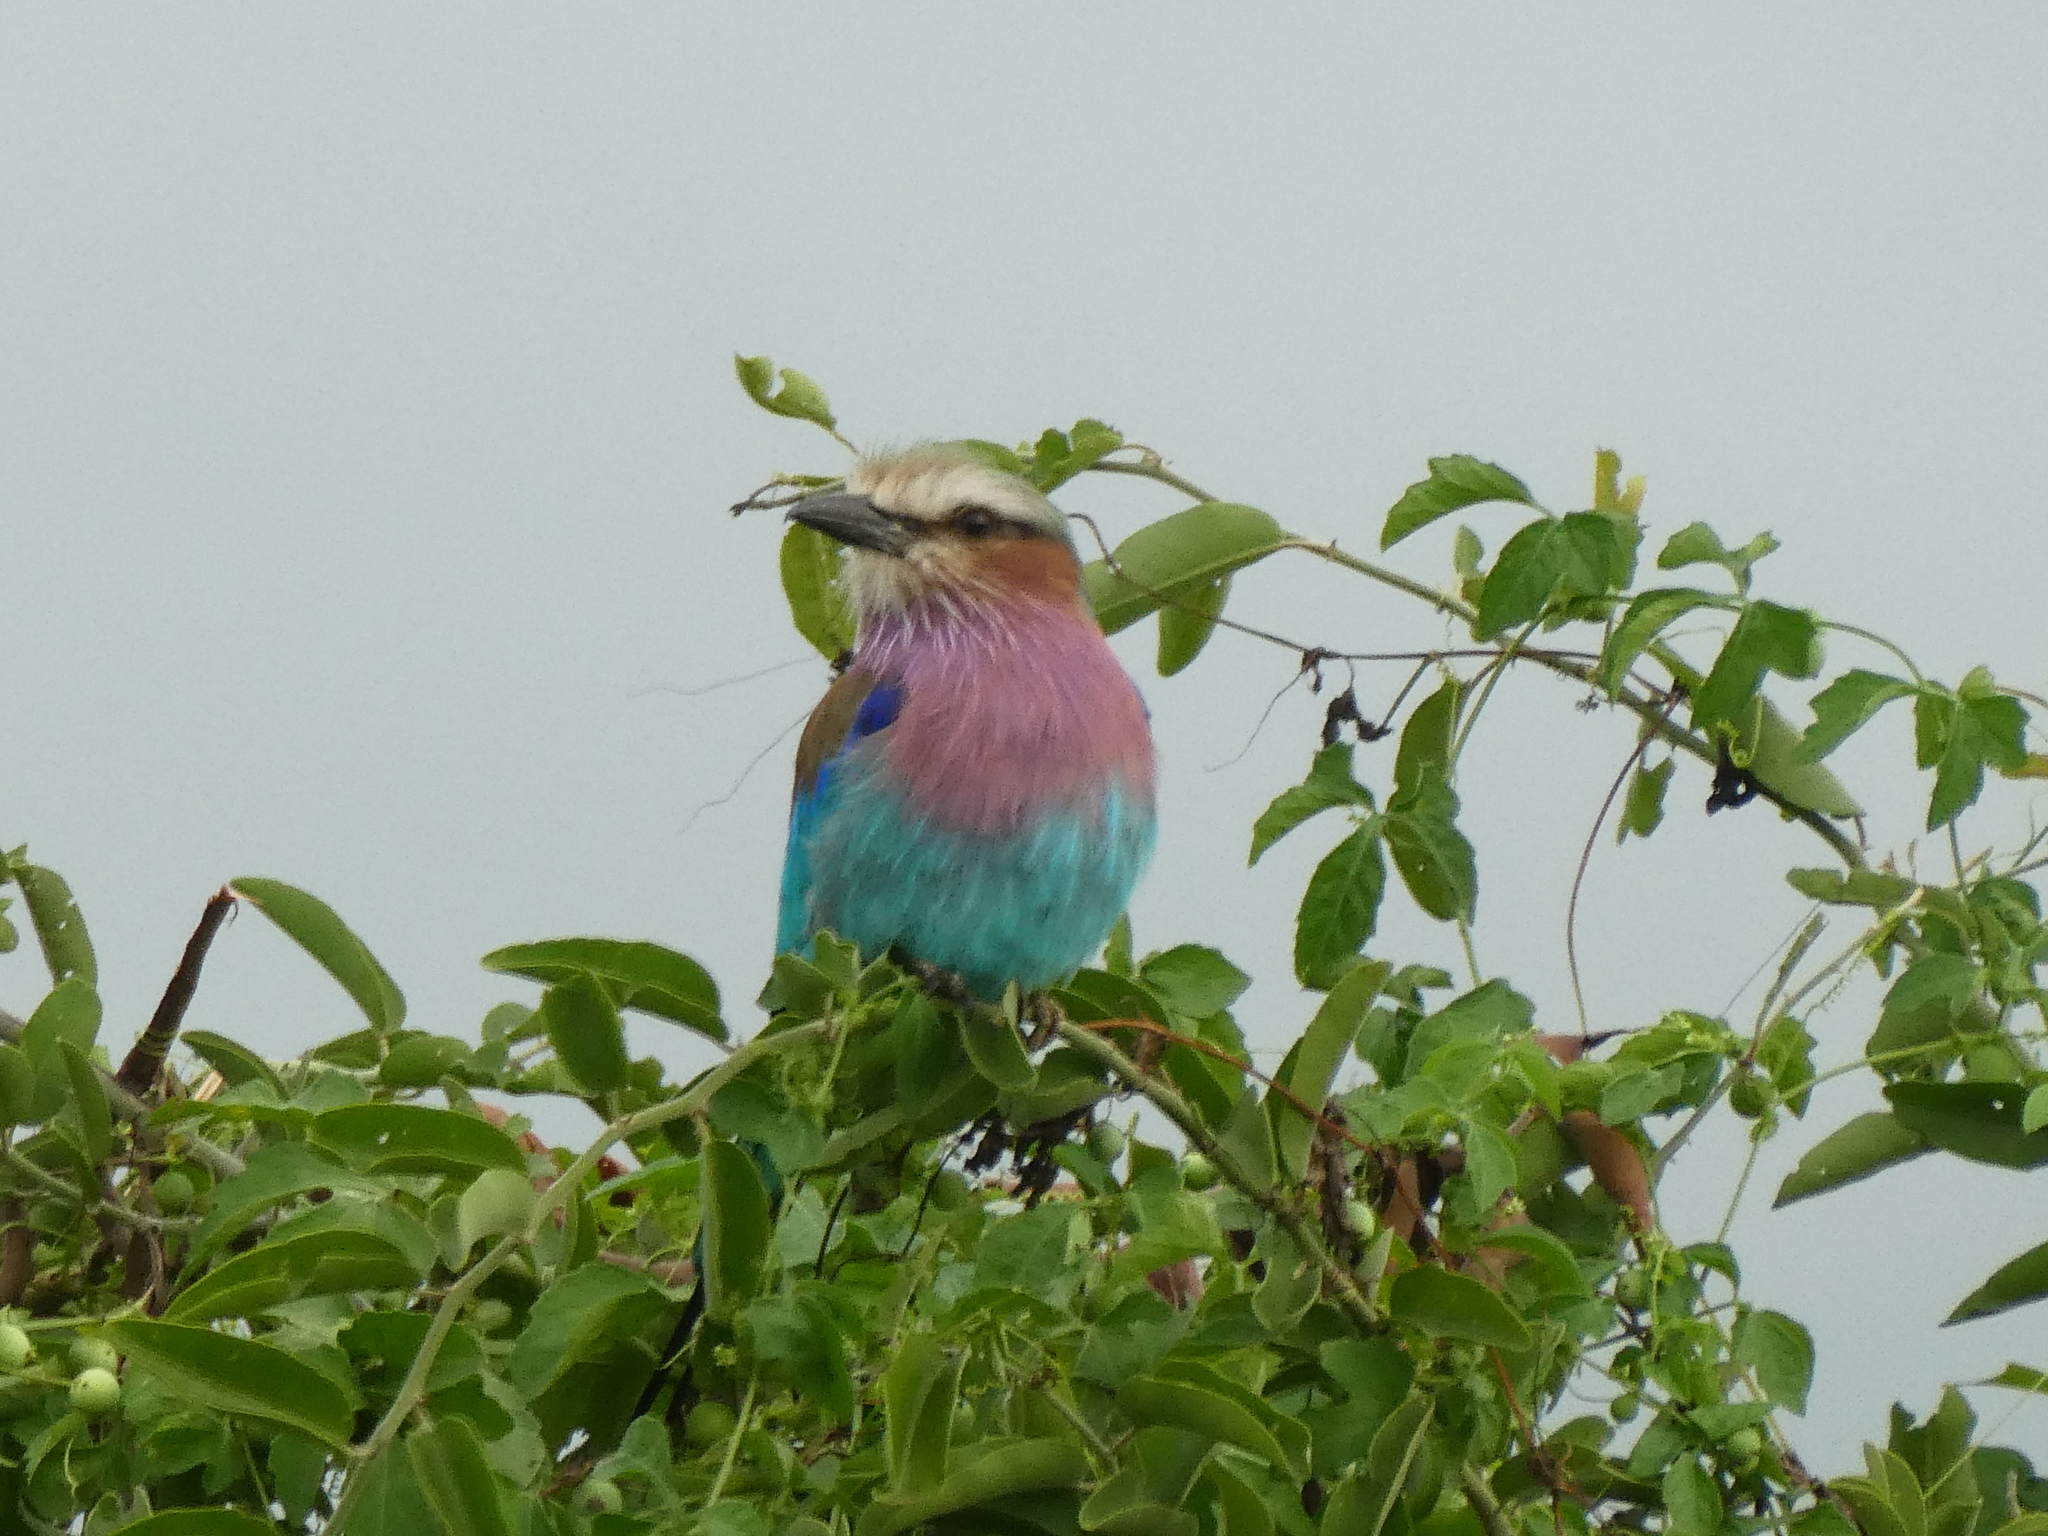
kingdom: Animalia
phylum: Chordata
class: Aves
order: Coraciiformes
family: Coraciidae
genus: Coracias
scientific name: Coracias caudatus
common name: Lilac-breasted roller
